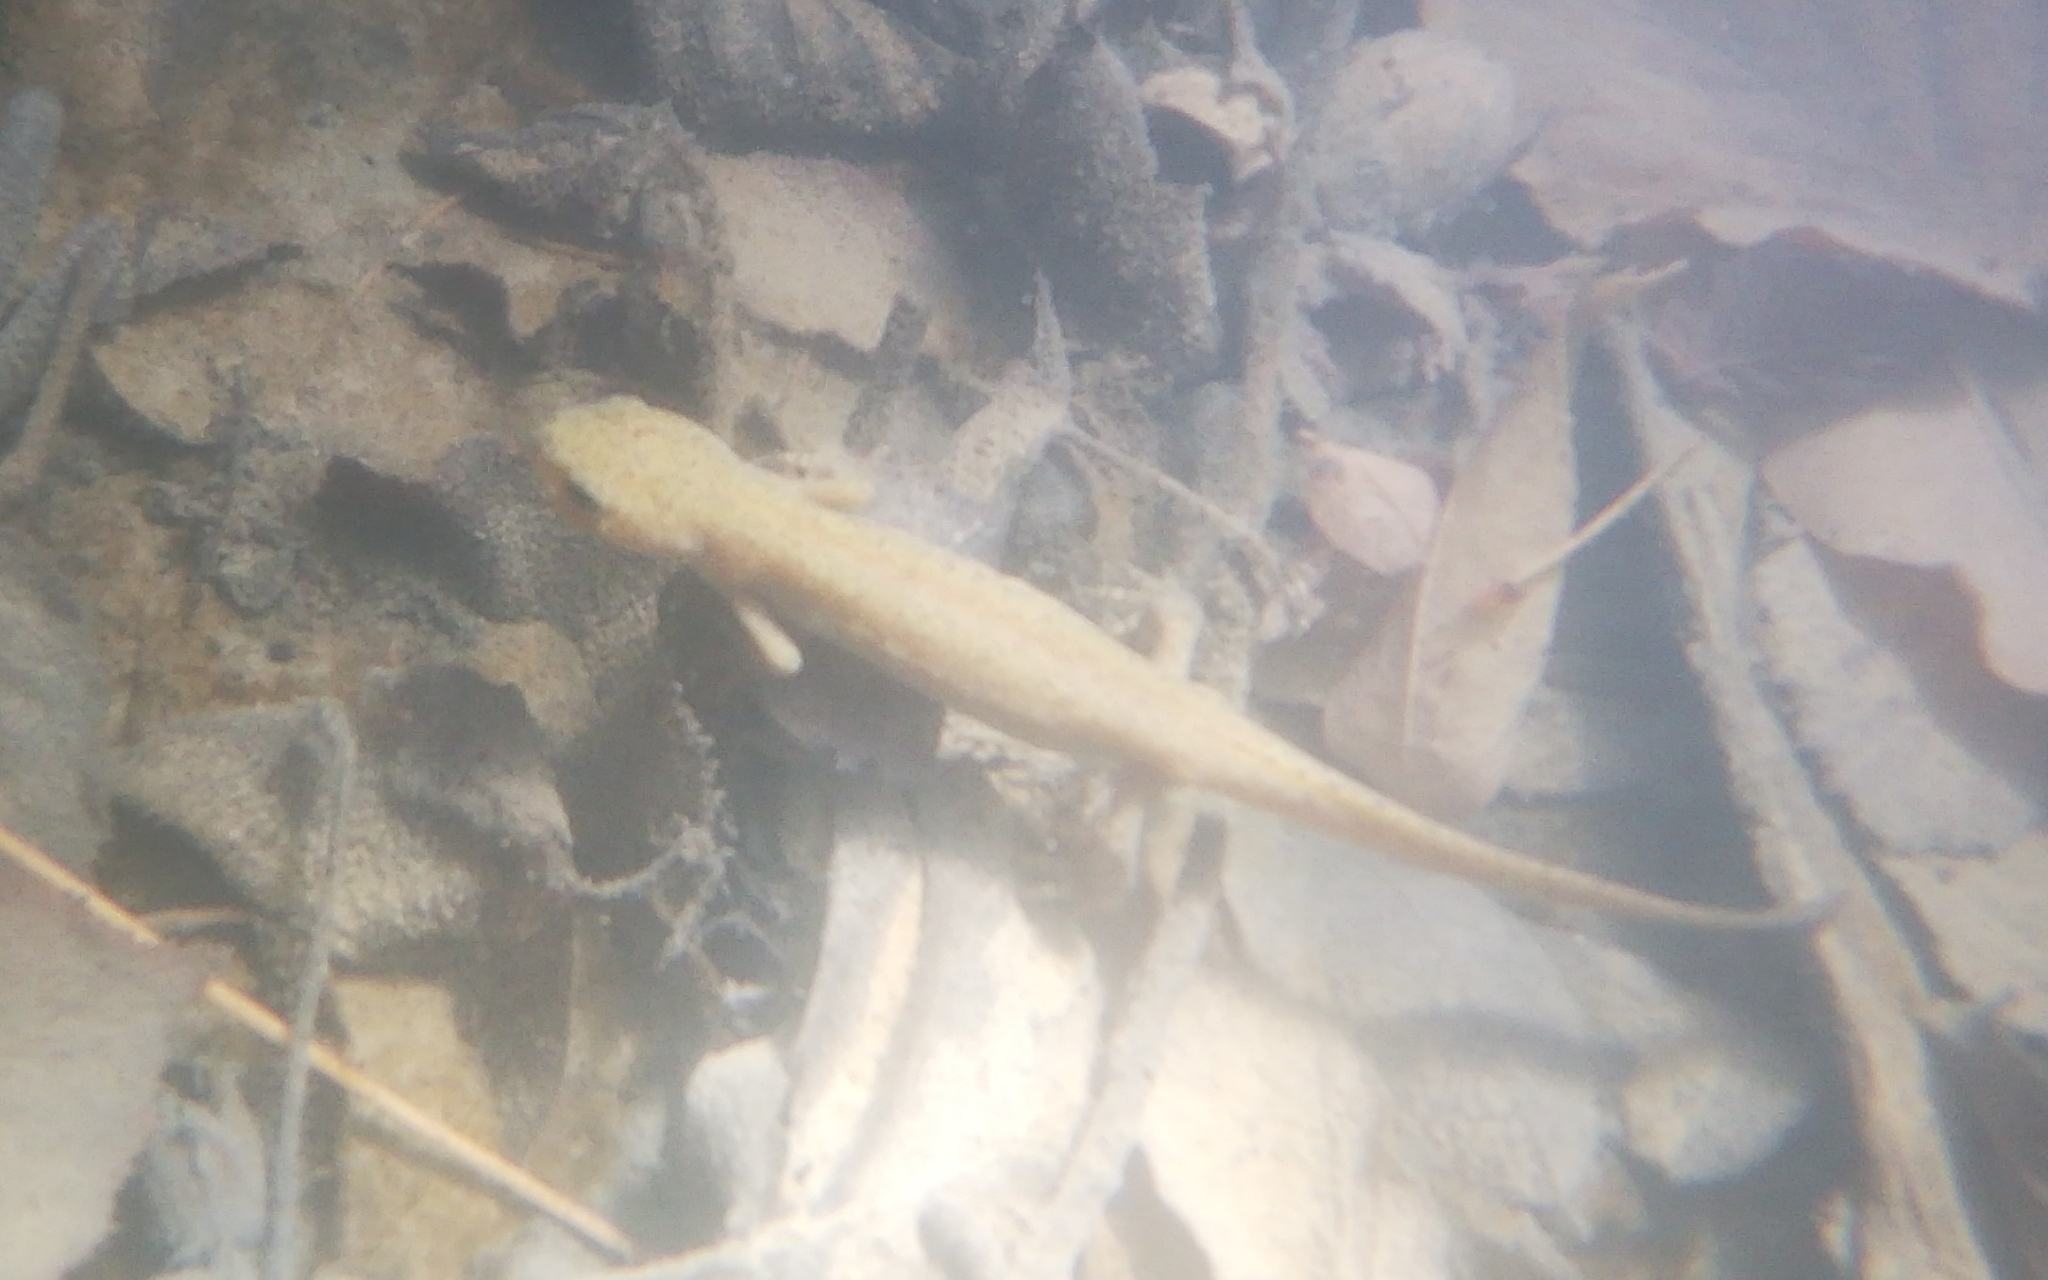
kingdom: Animalia
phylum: Chordata
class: Amphibia
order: Caudata
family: Salamandridae
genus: Ichthyosaura
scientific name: Ichthyosaura alpestris
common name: Alpine newt
